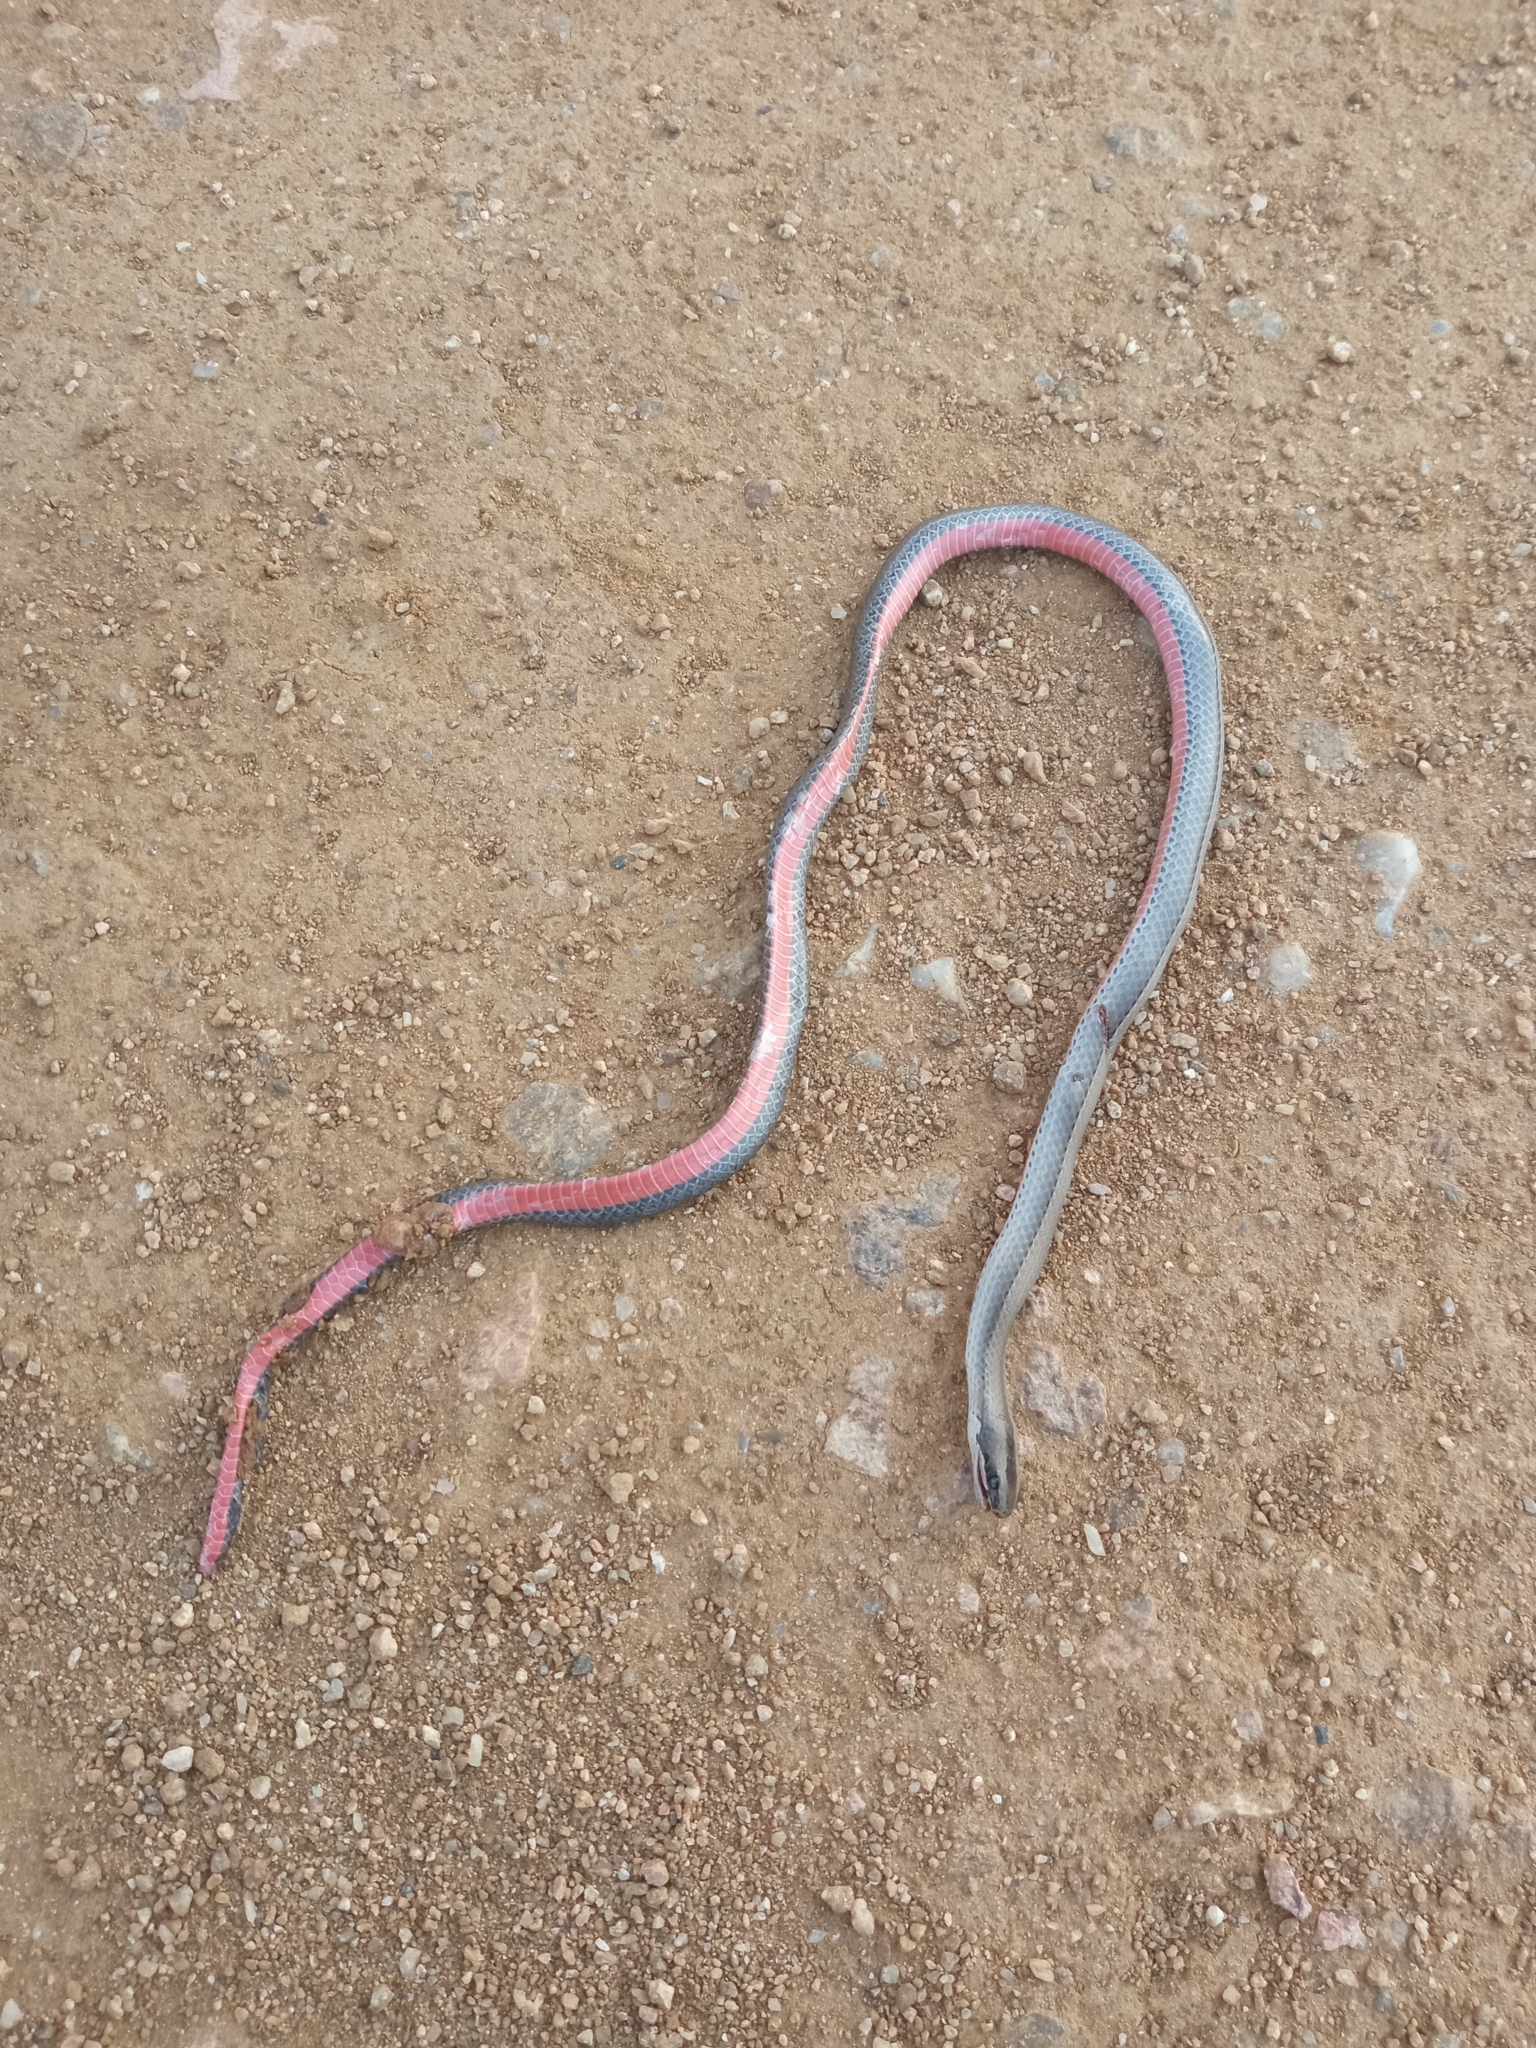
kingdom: Animalia
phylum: Chordata
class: Squamata
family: Colubridae
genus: Psomophis
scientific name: Psomophis obtusus
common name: Wide ground snake
